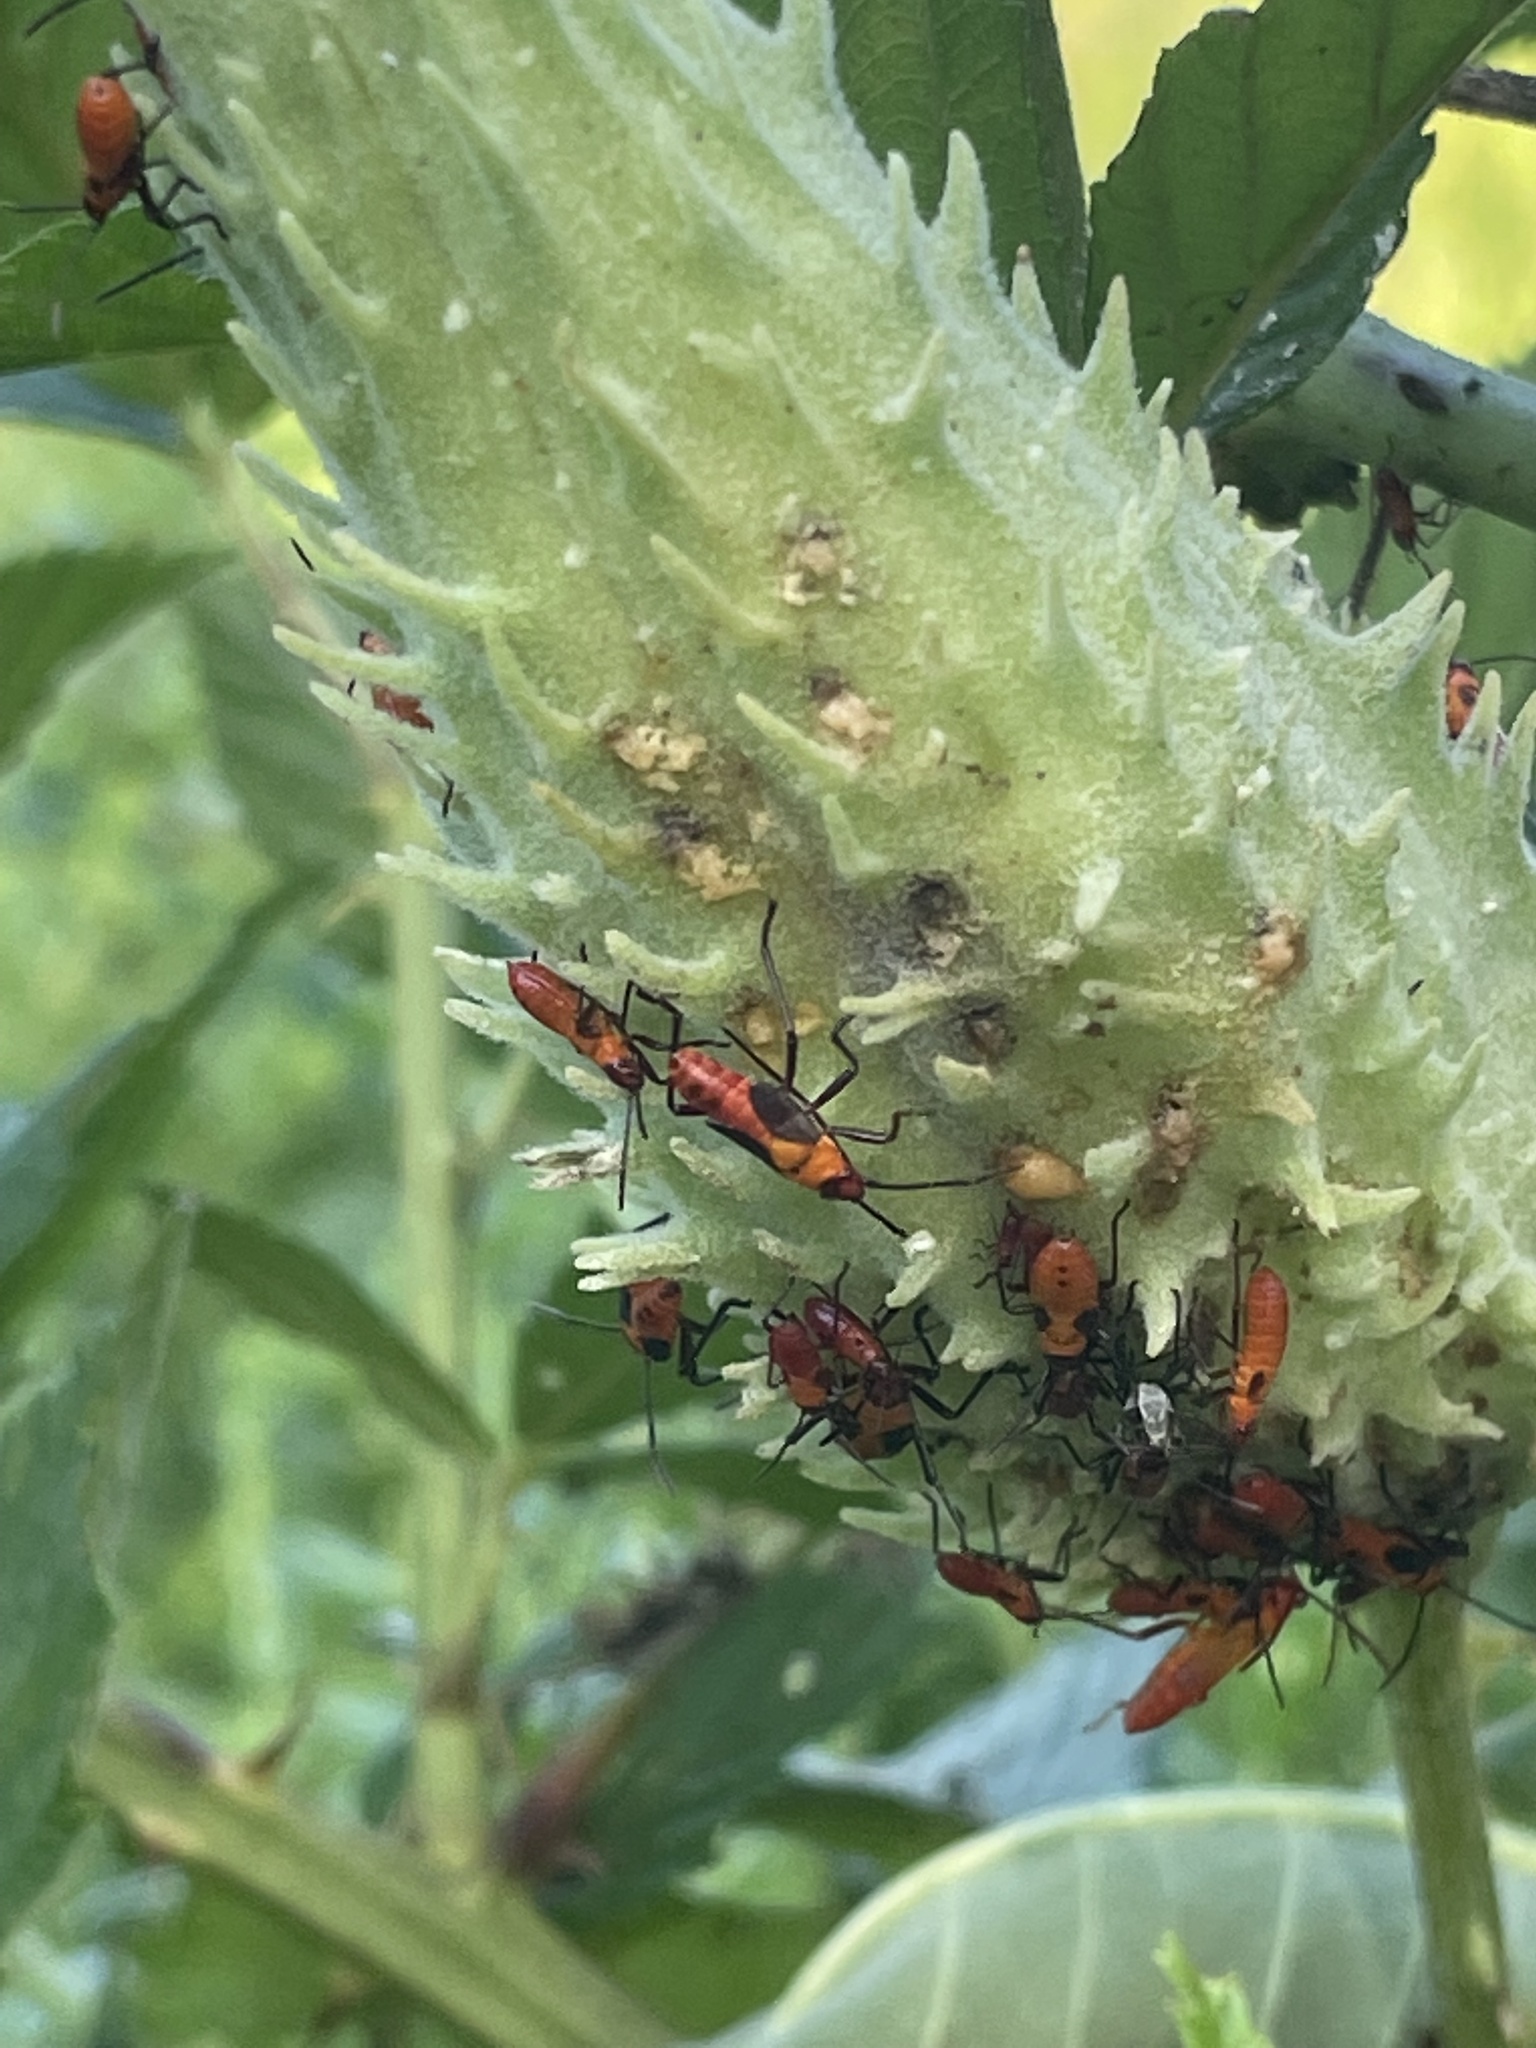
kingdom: Animalia
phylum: Arthropoda
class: Insecta
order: Hemiptera
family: Lygaeidae
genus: Oncopeltus
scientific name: Oncopeltus fasciatus
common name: Large milkweed bug
